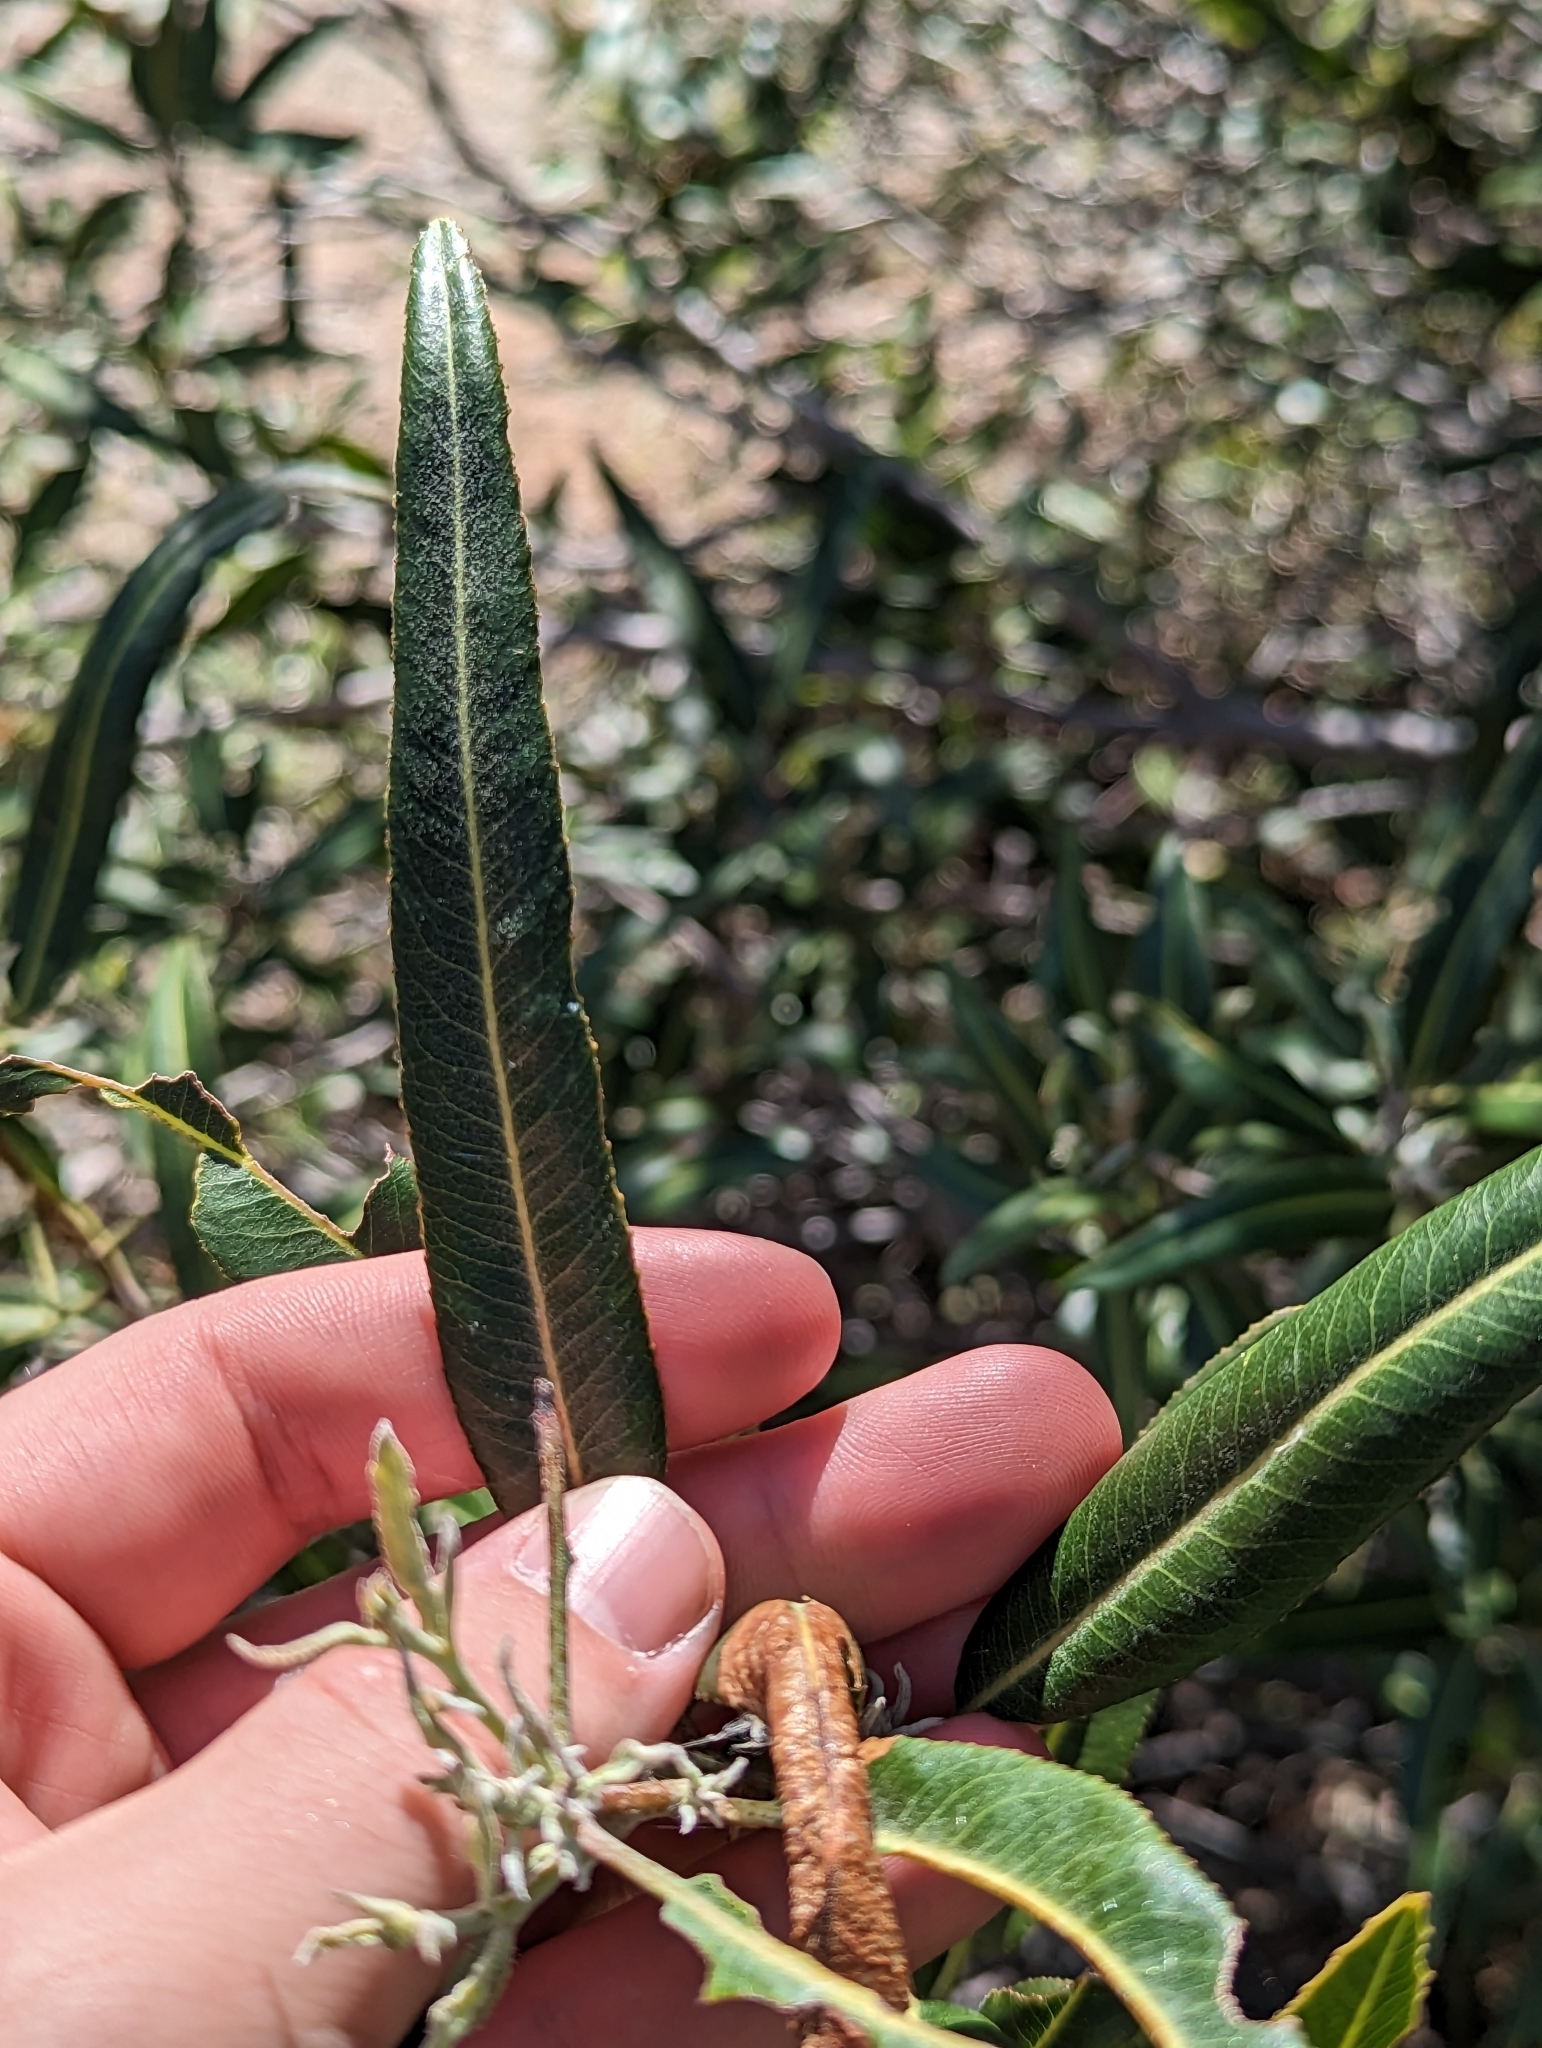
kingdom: Plantae
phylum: Tracheophyta
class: Magnoliopsida
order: Rosales
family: Rosaceae
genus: Vauquelinia
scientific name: Vauquelinia californica
